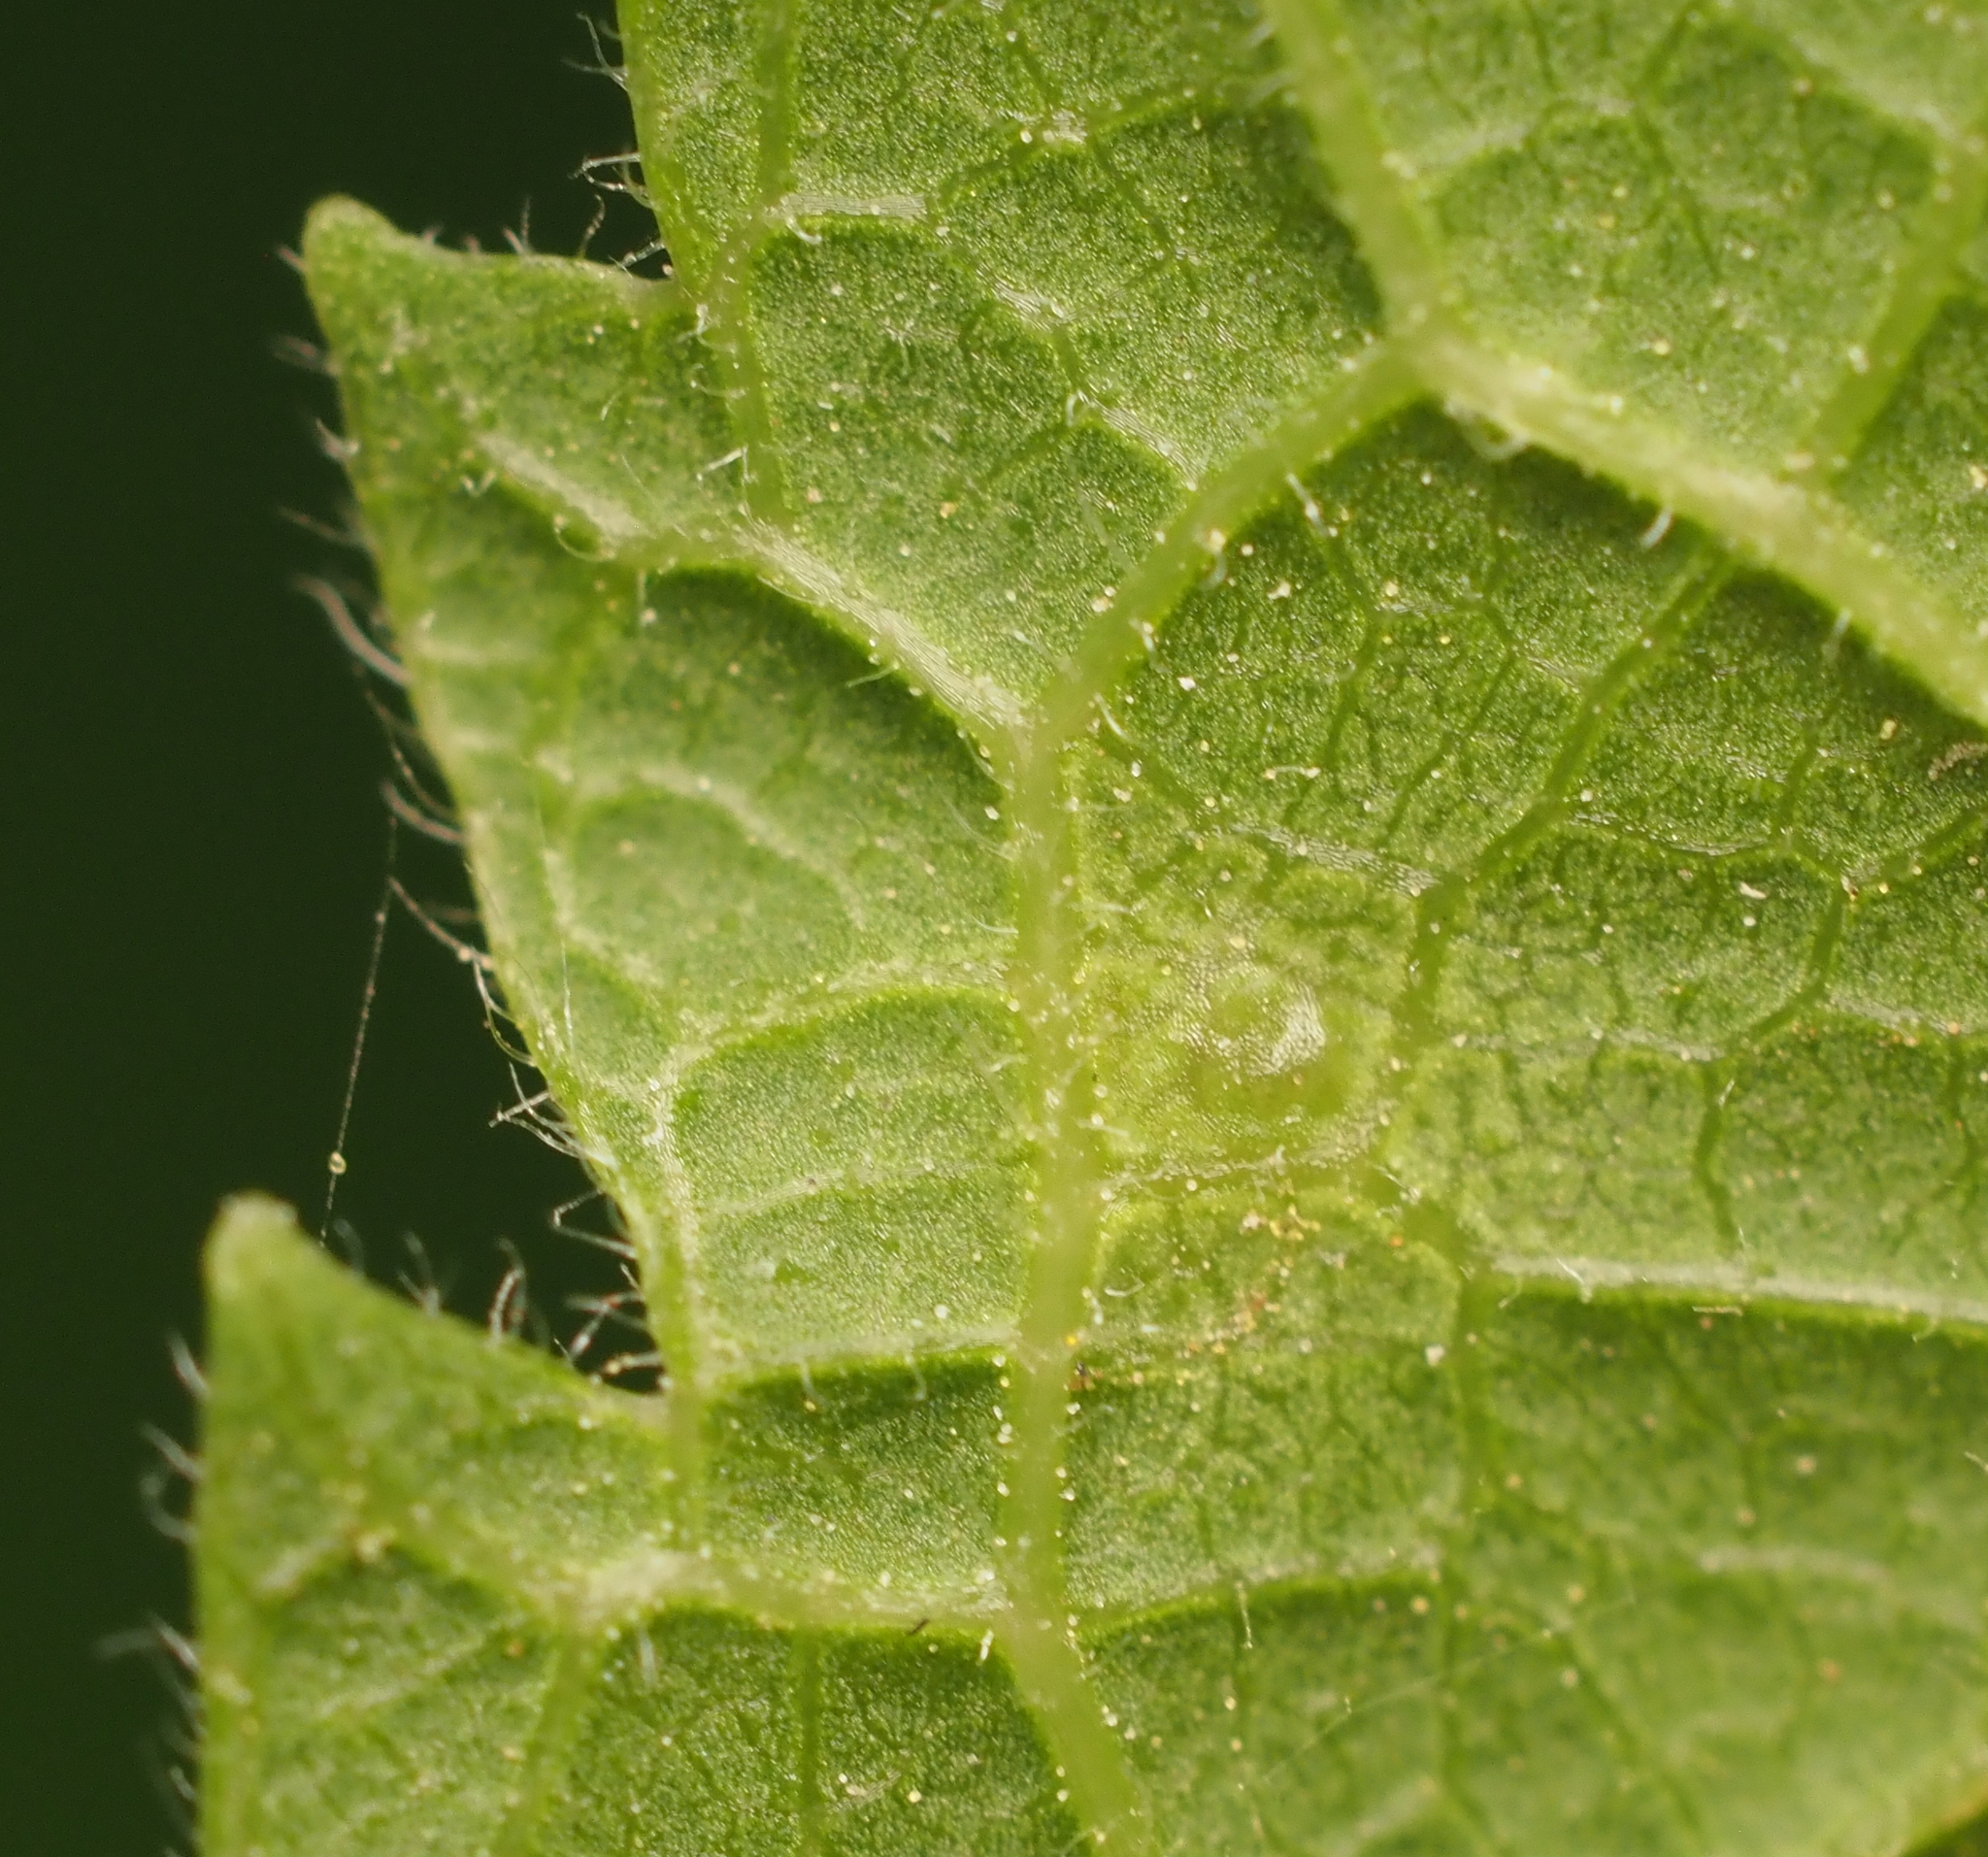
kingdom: Animalia
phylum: Arthropoda
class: Insecta
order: Diptera
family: Cecidomyiidae
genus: Celticecis
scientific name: Celticecis aciculata
